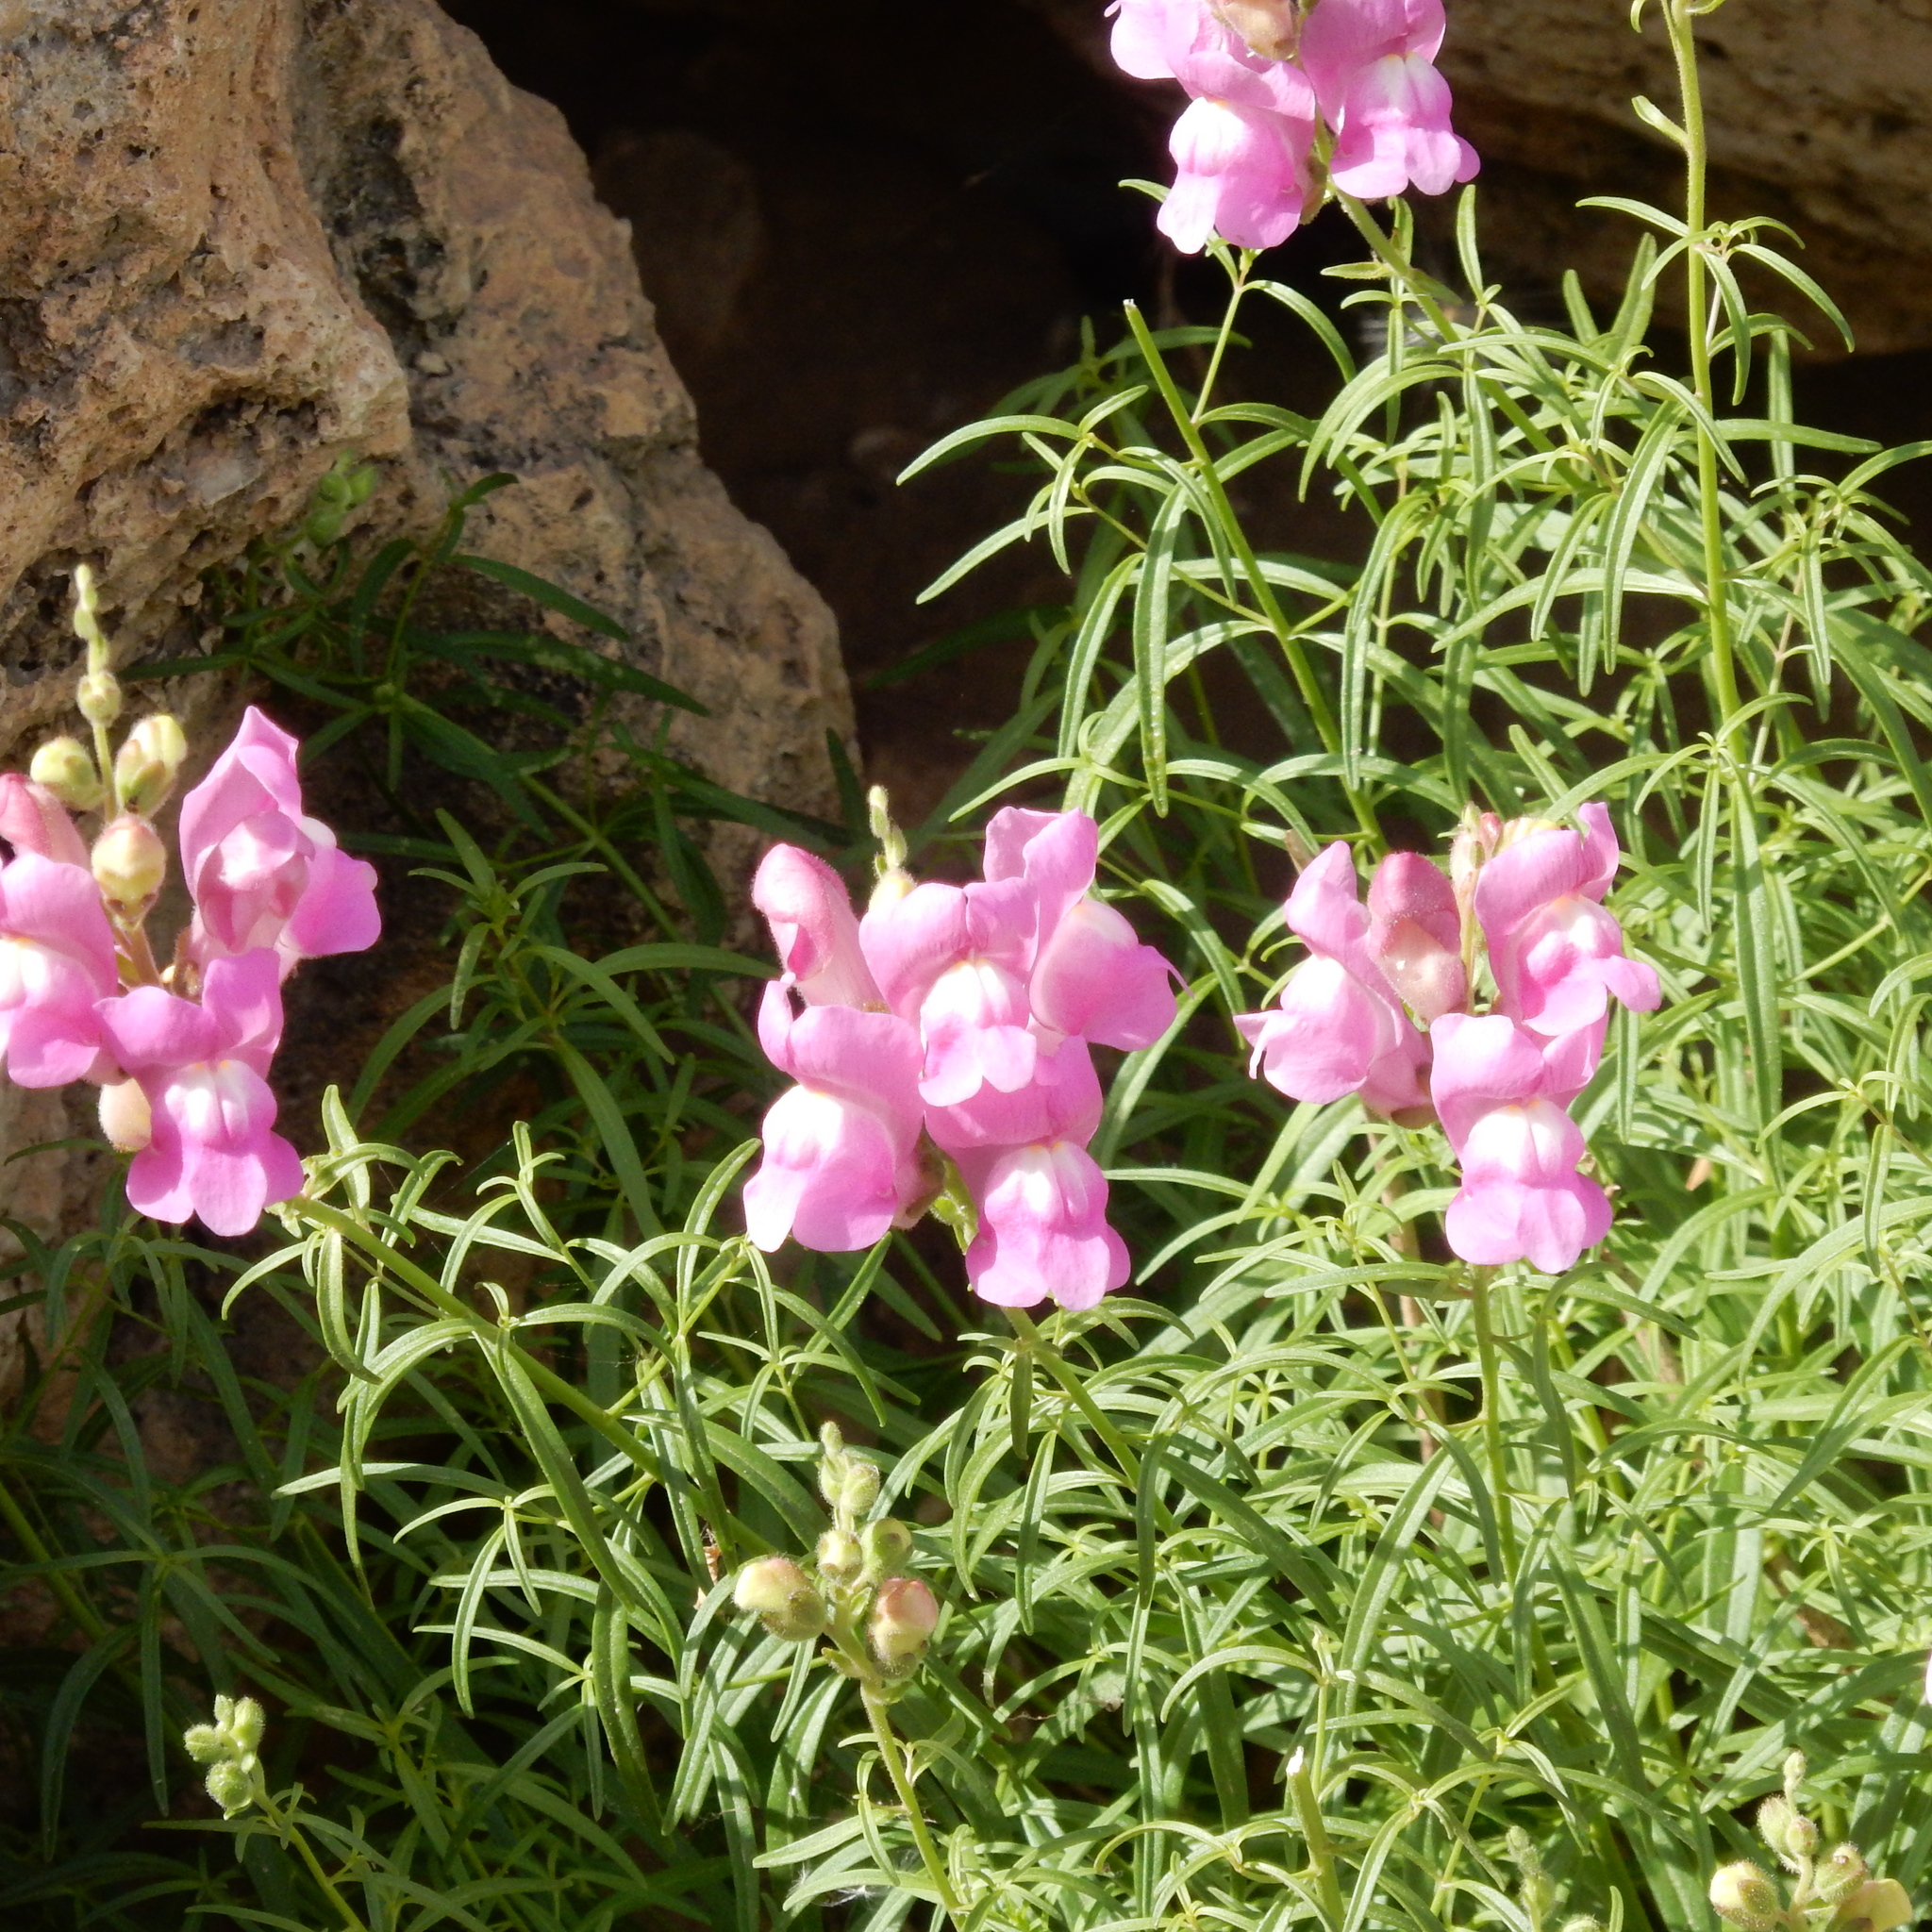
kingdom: Plantae
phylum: Tracheophyta
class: Magnoliopsida
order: Lamiales
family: Plantaginaceae
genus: Antirrhinum
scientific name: Antirrhinum tortuosum
